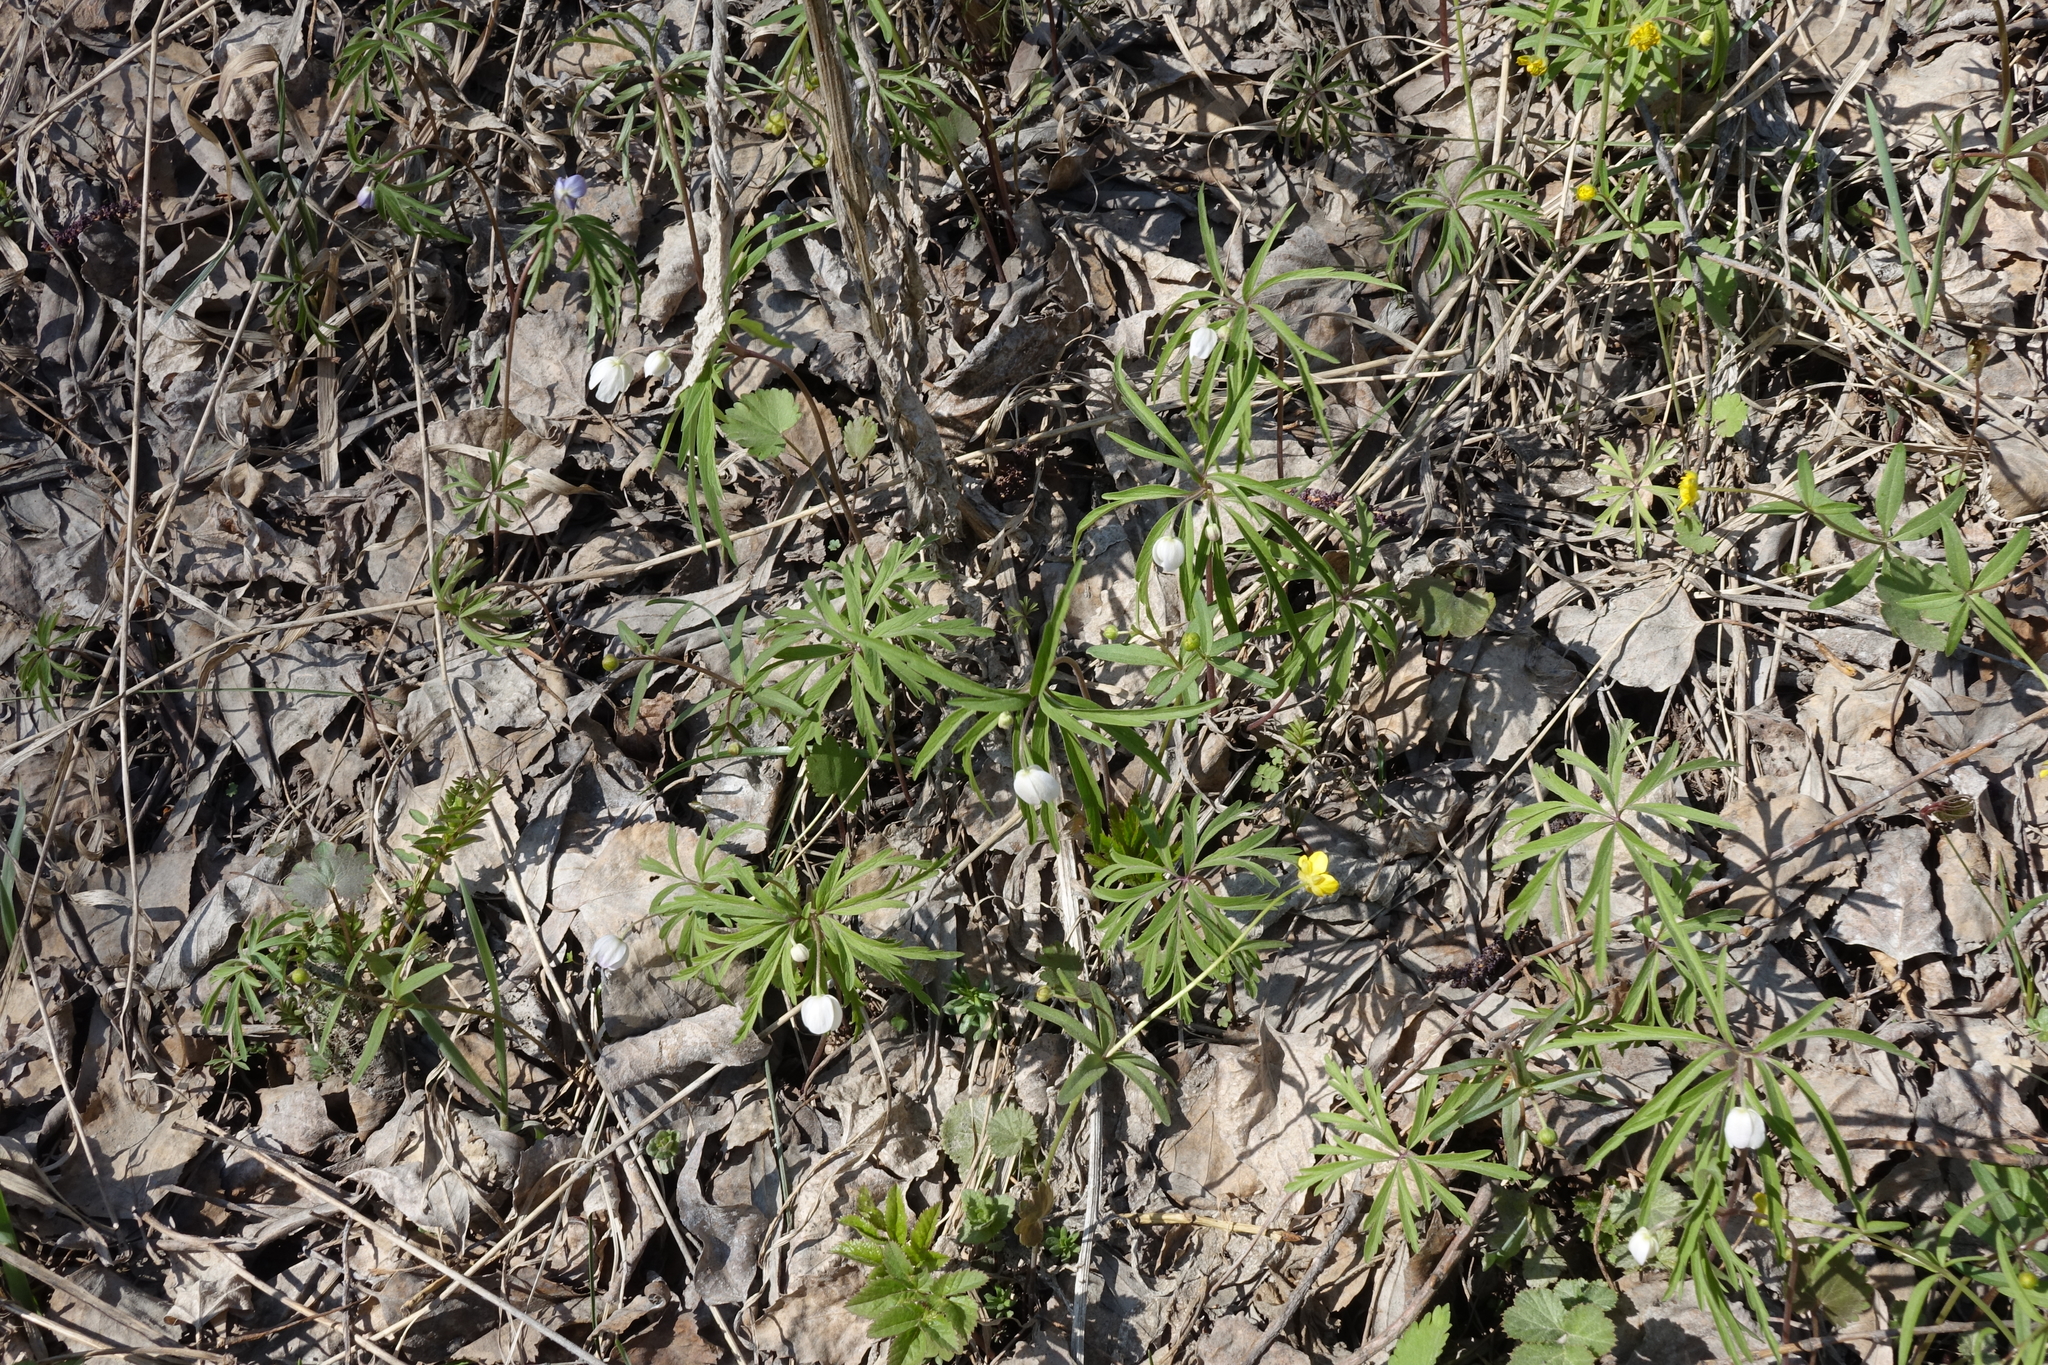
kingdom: Plantae
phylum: Tracheophyta
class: Magnoliopsida
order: Ranunculales
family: Ranunculaceae
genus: Anemone
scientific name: Anemone caerulea
